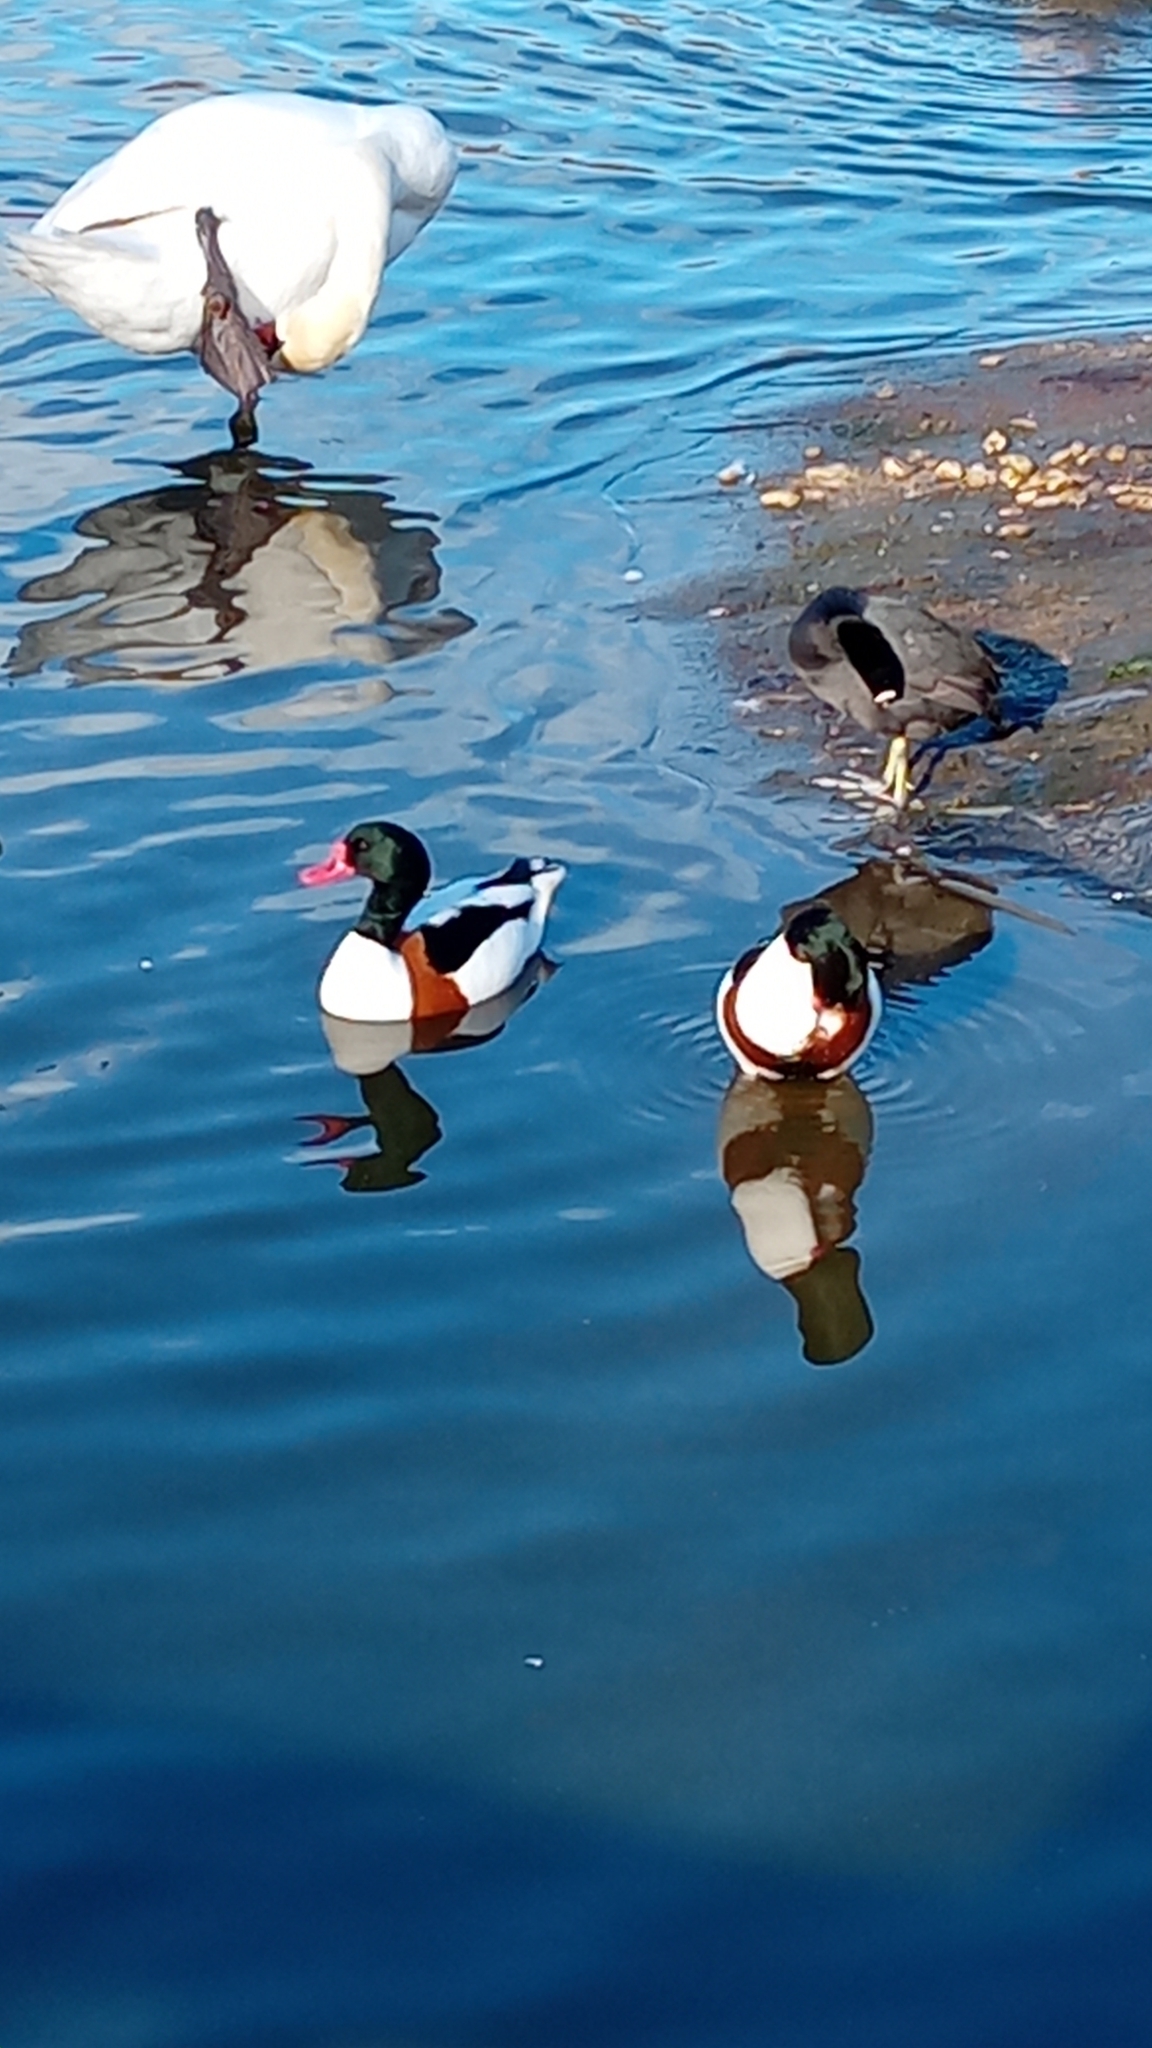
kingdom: Animalia
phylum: Chordata
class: Aves
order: Anseriformes
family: Anatidae
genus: Tadorna
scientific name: Tadorna tadorna
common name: Common shelduck
